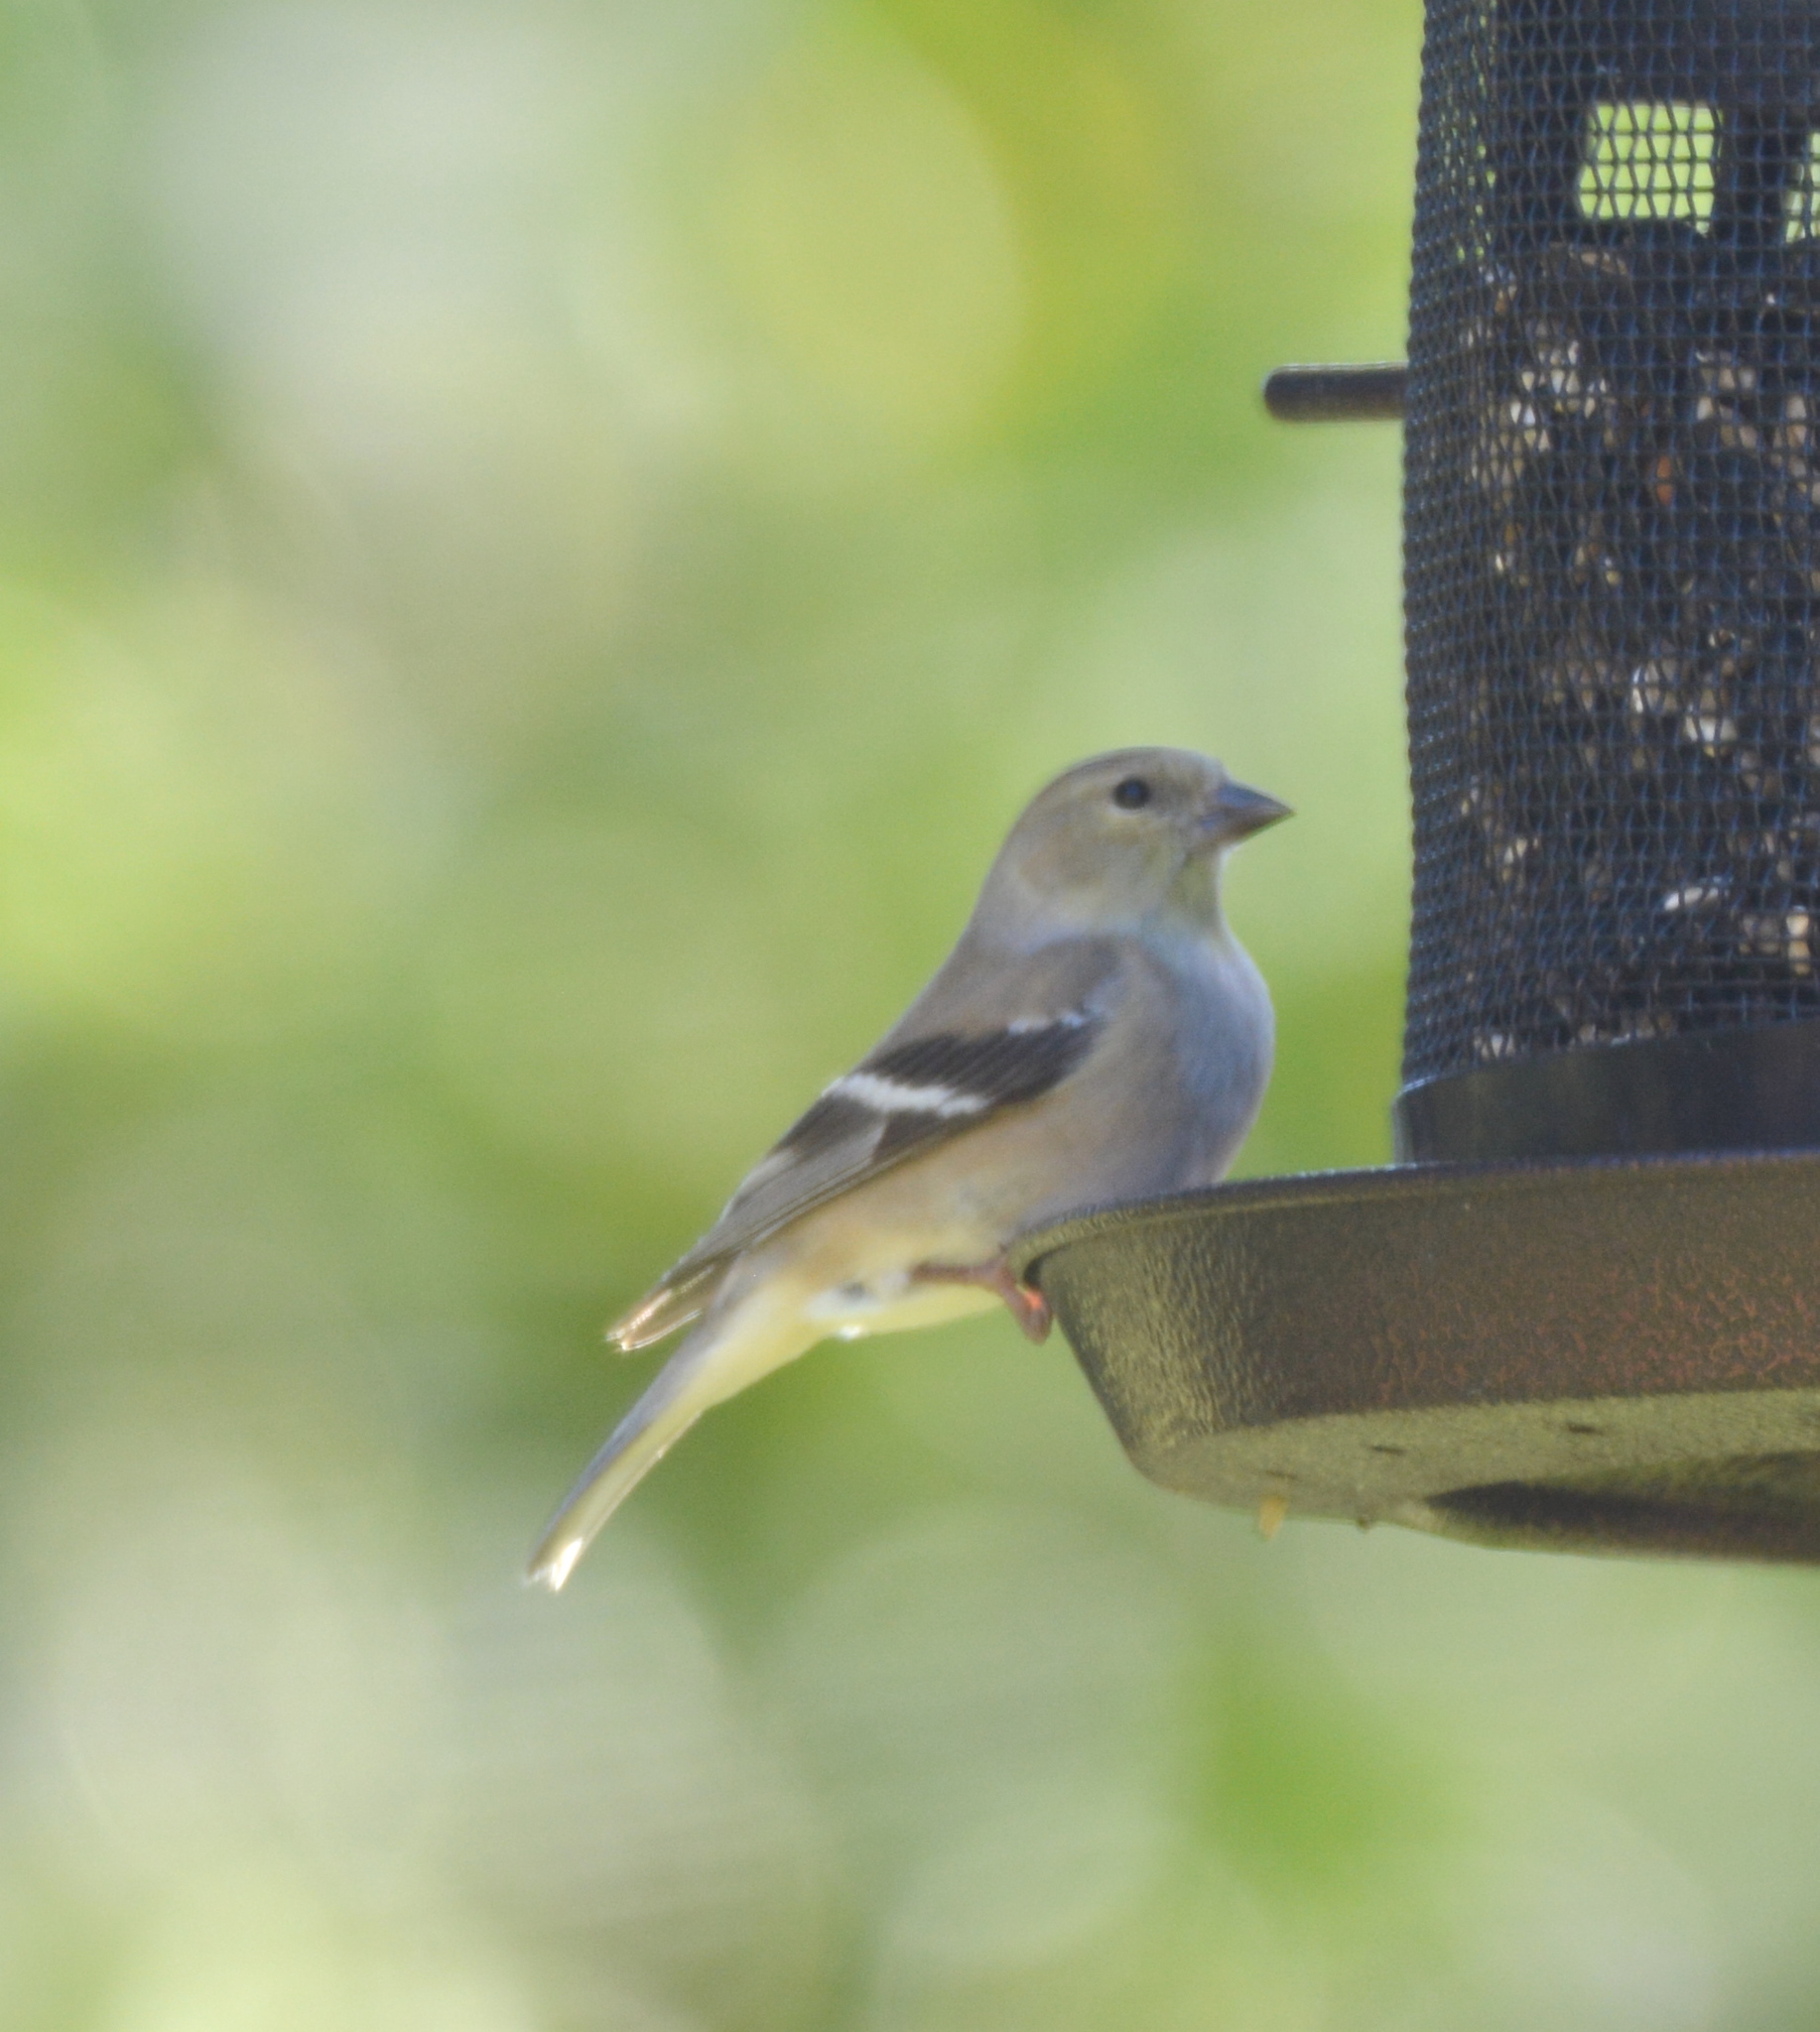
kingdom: Animalia
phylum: Chordata
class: Aves
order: Passeriformes
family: Fringillidae
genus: Spinus
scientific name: Spinus tristis
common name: American goldfinch
